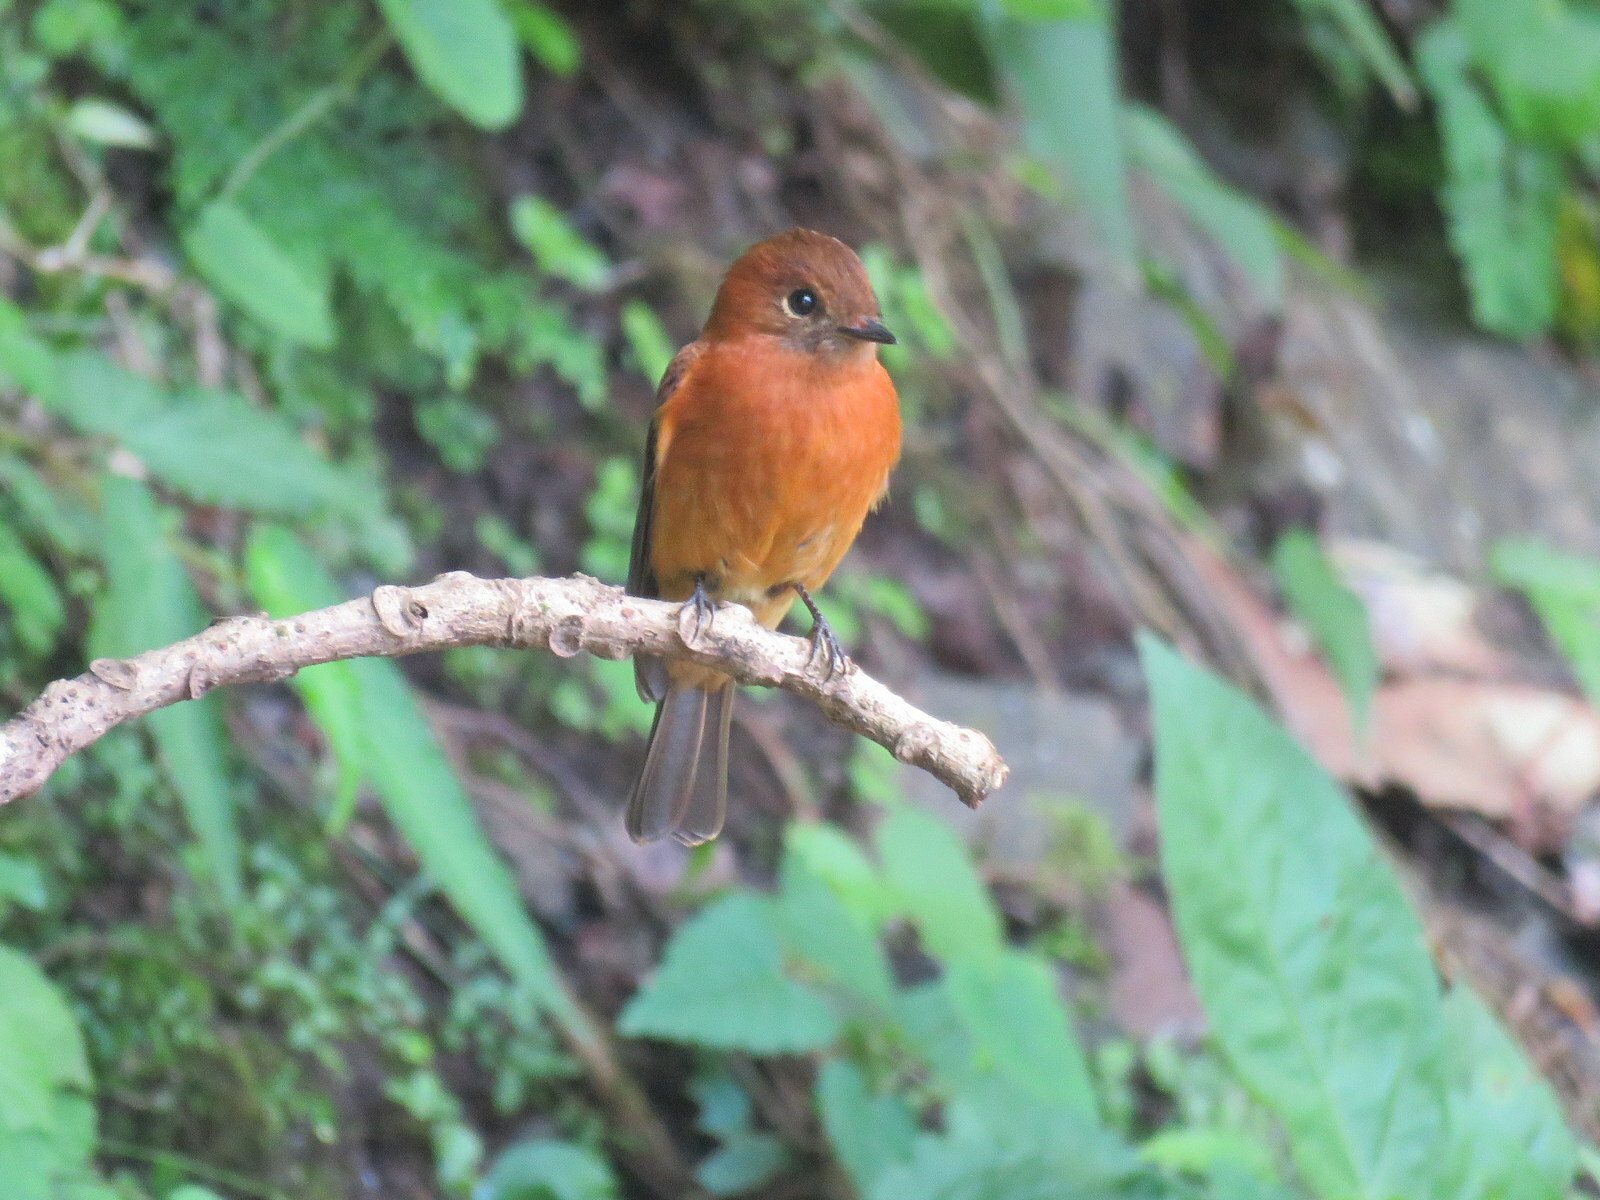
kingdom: Animalia
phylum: Chordata
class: Aves
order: Passeriformes
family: Tyrannidae
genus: Pyrrhomyias
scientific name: Pyrrhomyias cinnamomeus
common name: Cinnamon flycatcher
